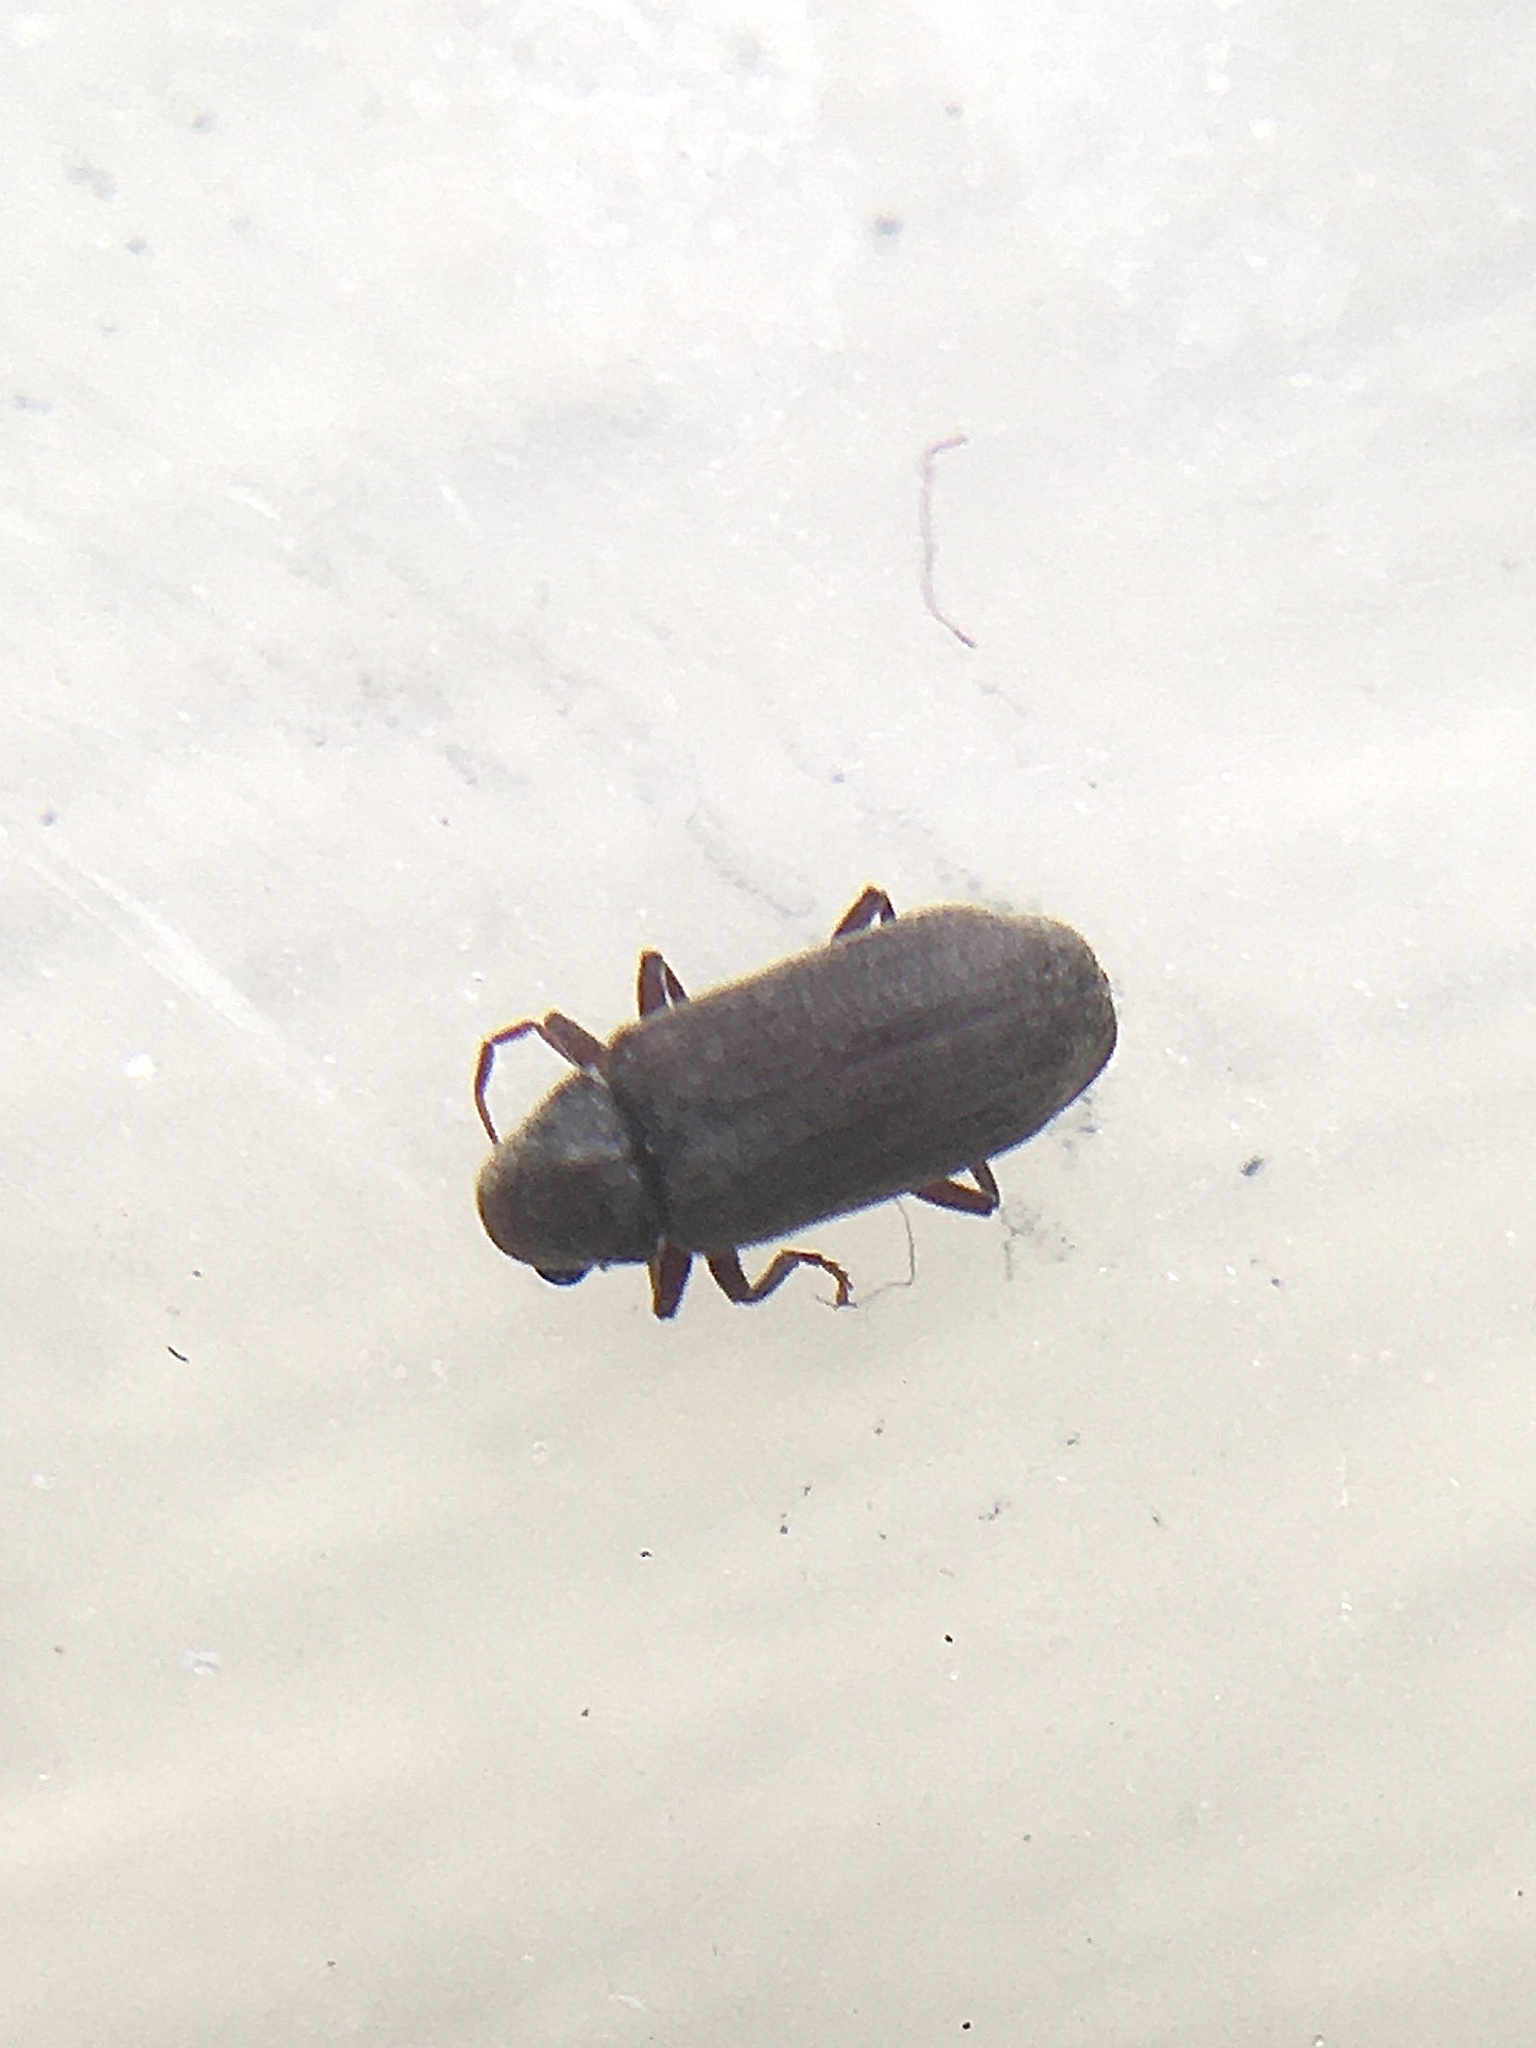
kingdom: Animalia
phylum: Arthropoda
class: Insecta
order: Coleoptera
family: Anobiidae
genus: Anobium
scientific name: Anobium punctatum
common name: Furniture beetle
